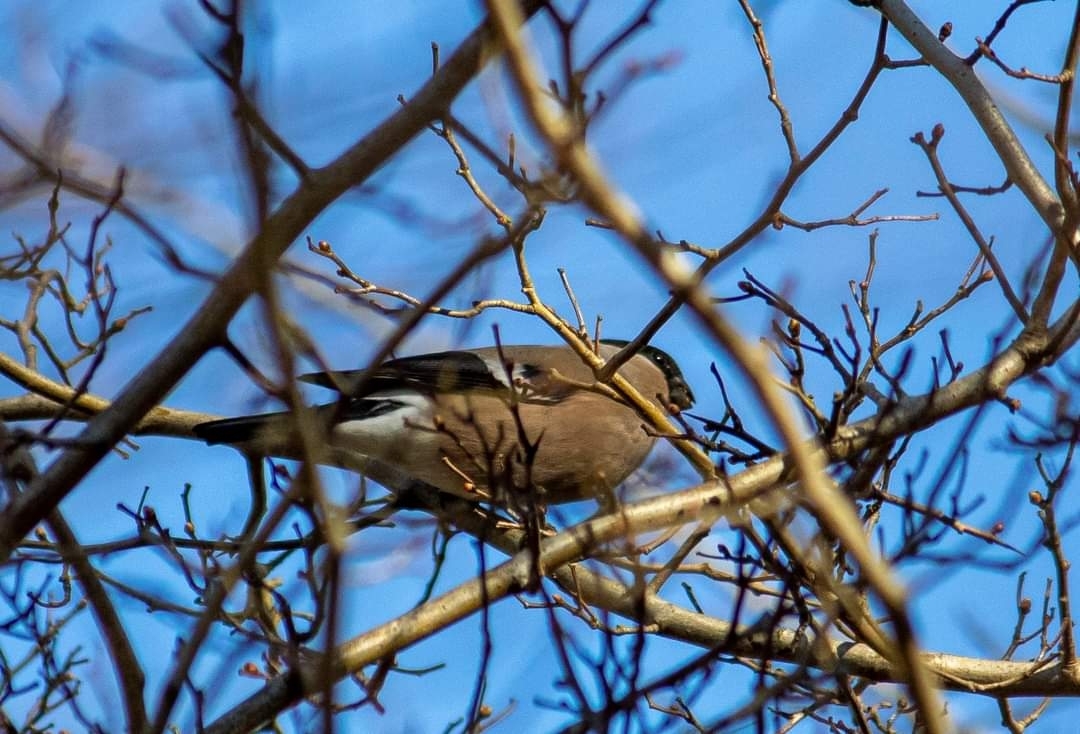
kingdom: Animalia
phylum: Chordata
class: Aves
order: Passeriformes
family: Fringillidae
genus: Pyrrhula
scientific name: Pyrrhula pyrrhula
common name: Eurasian bullfinch
